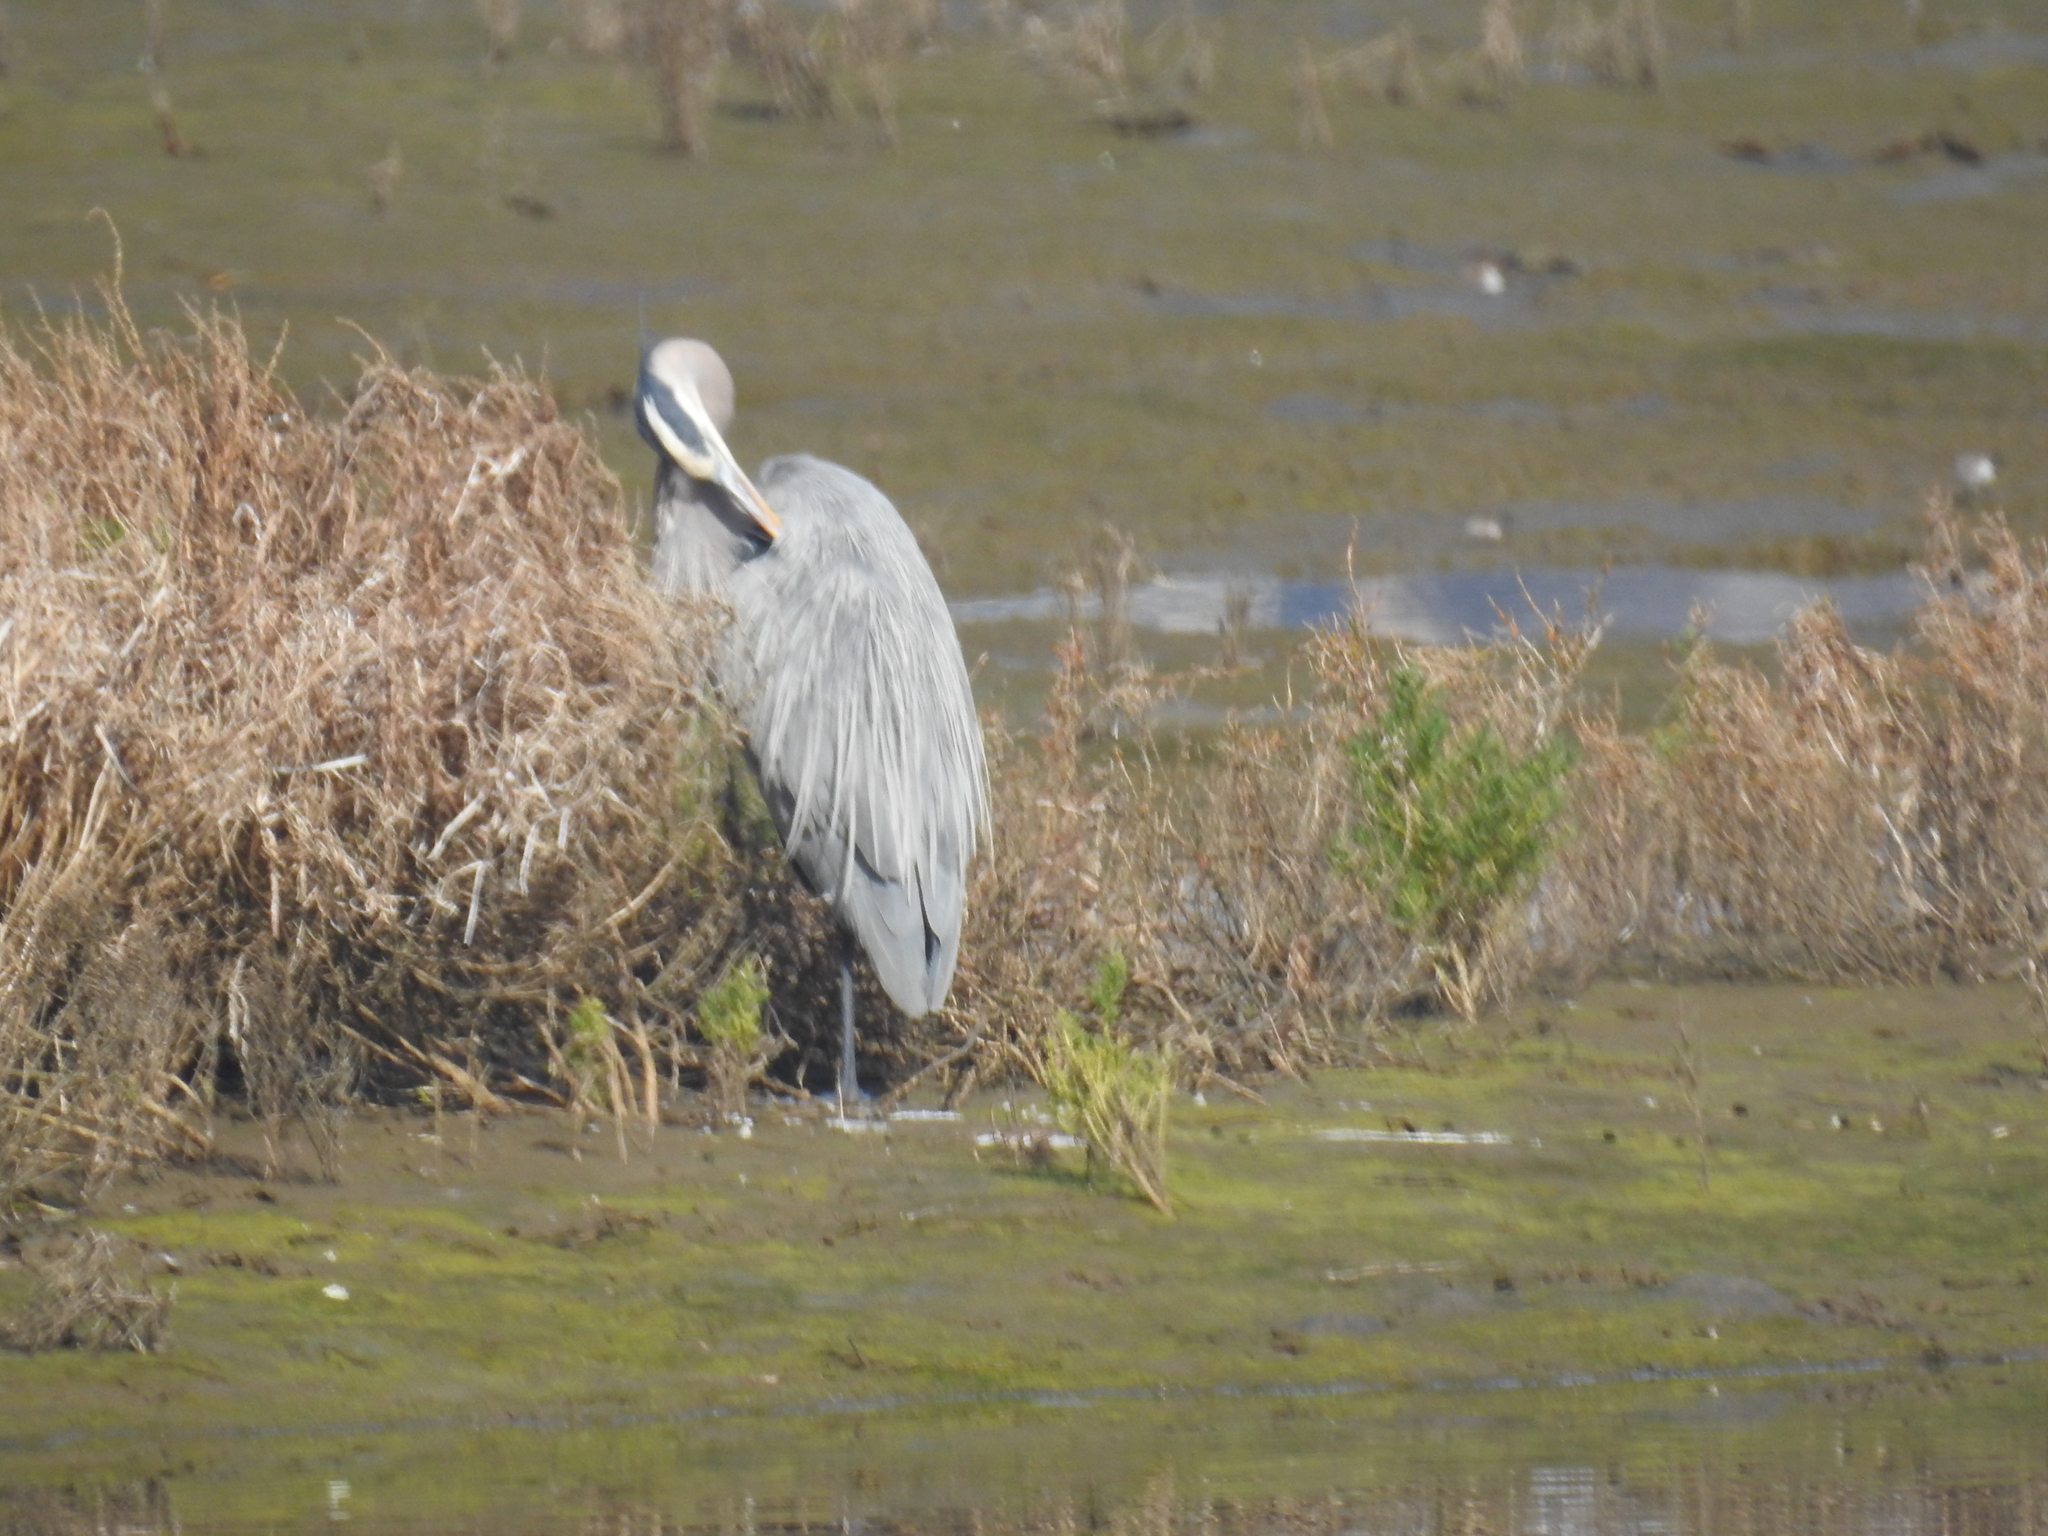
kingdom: Animalia
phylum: Chordata
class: Aves
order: Pelecaniformes
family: Ardeidae
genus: Ardea
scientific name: Ardea herodias
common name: Great blue heron
